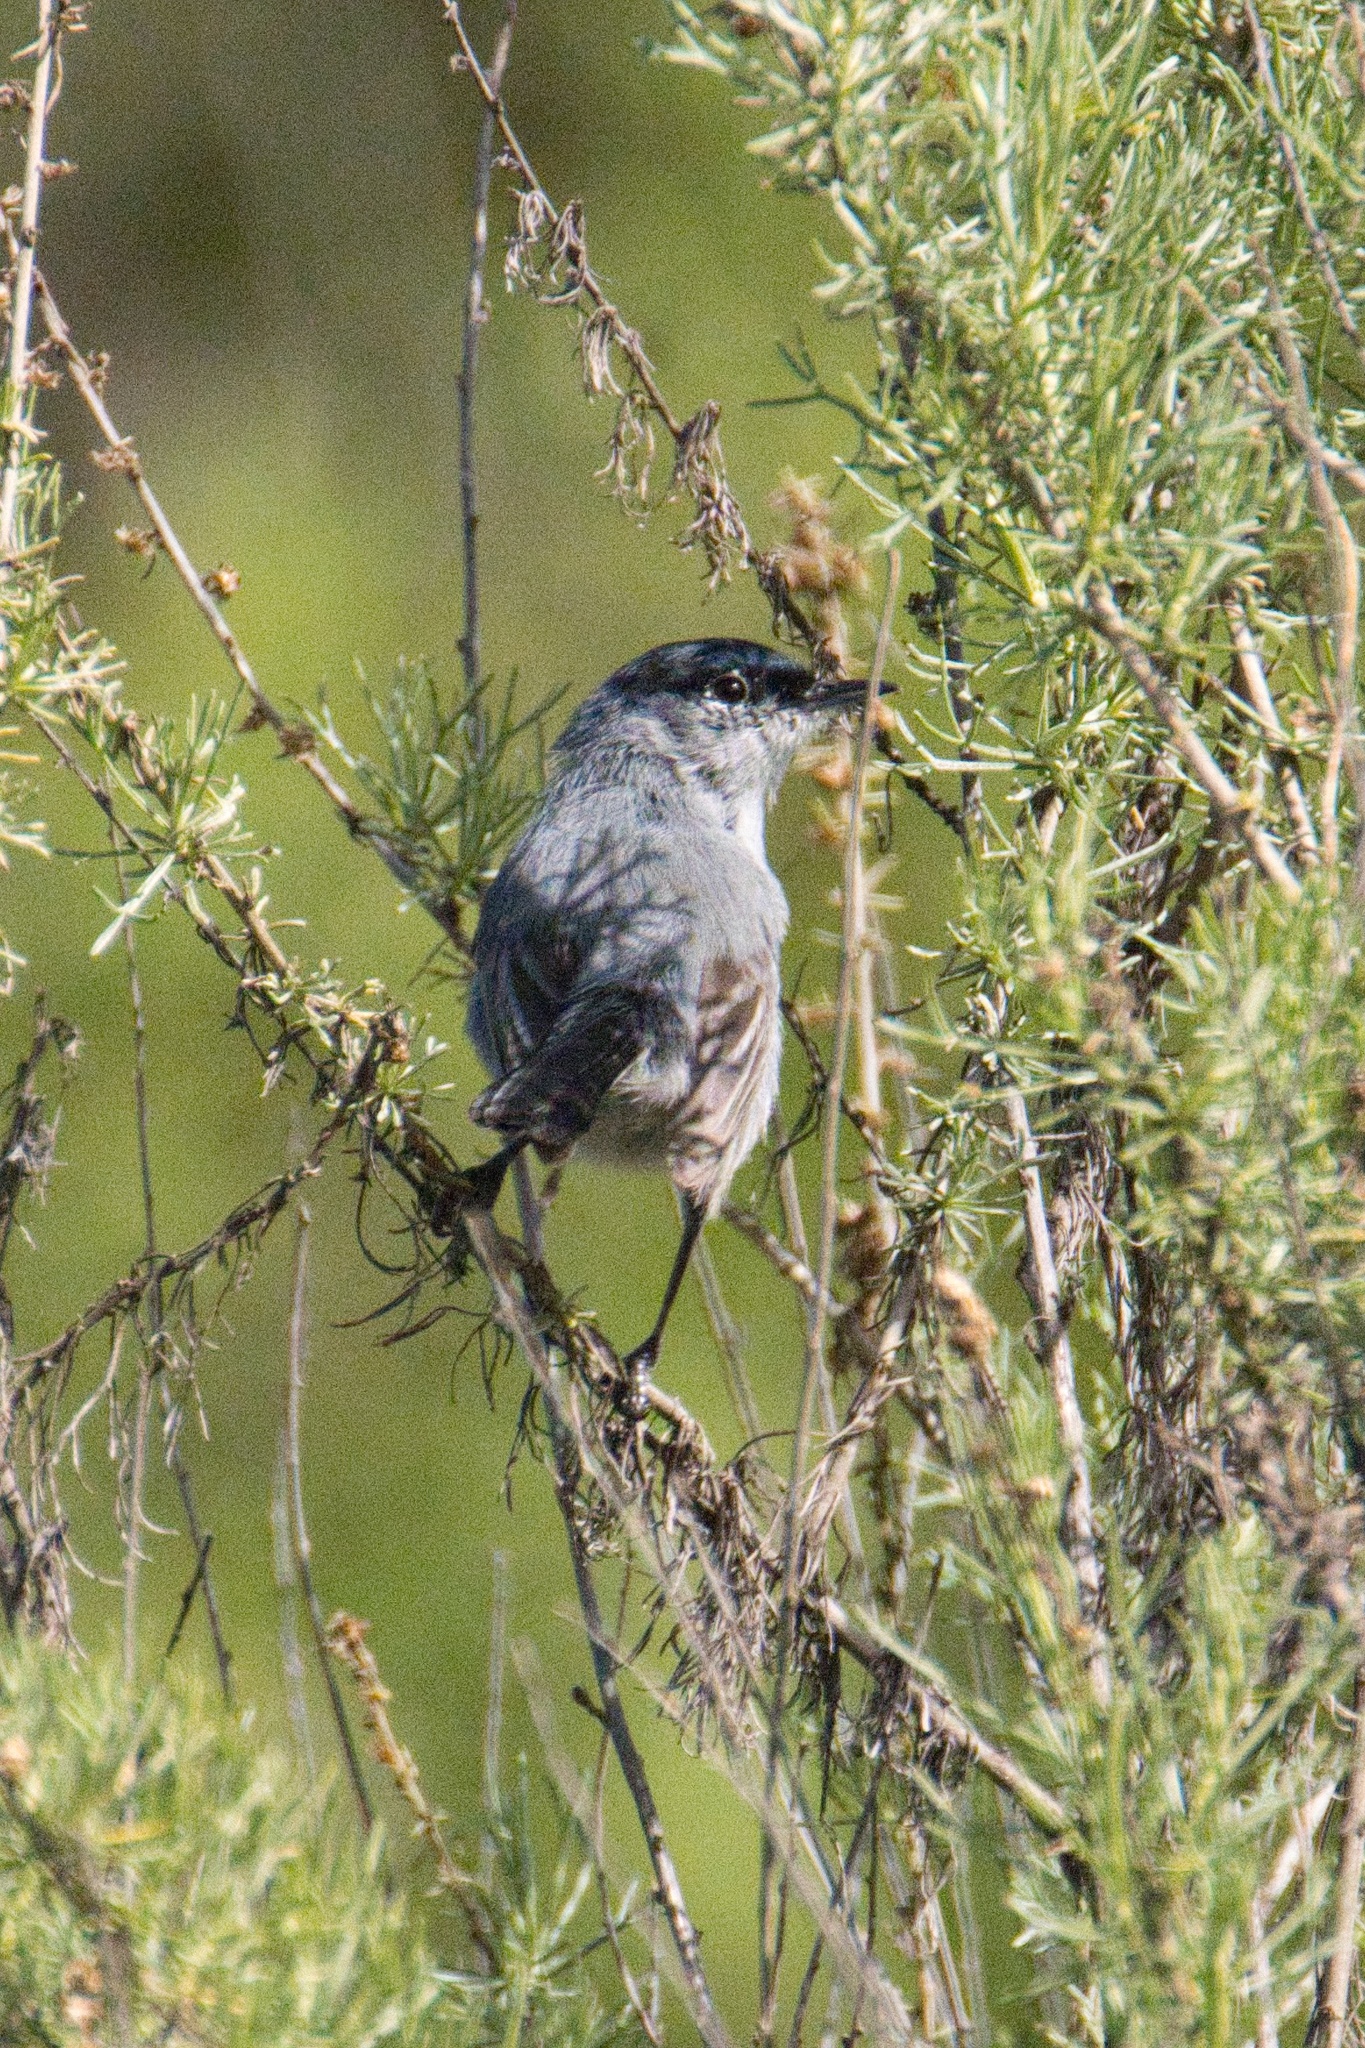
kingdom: Animalia
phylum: Chordata
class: Aves
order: Passeriformes
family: Polioptilidae
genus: Polioptila
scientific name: Polioptila californica
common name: California gnatcatcher
